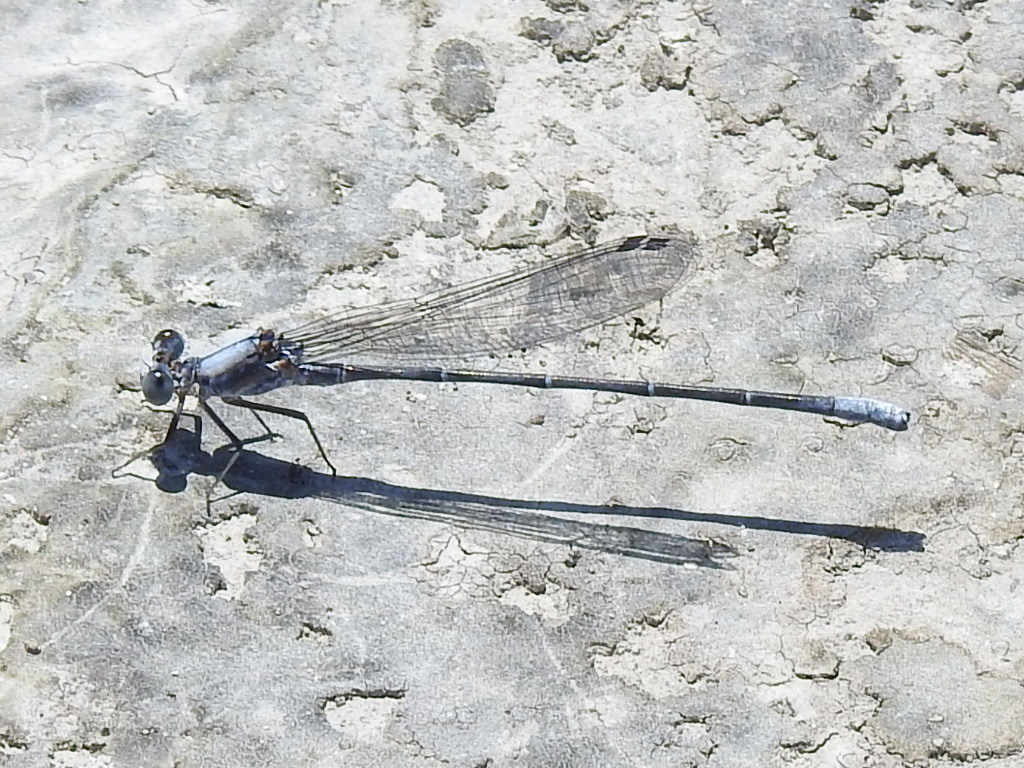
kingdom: Animalia
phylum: Arthropoda
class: Insecta
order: Odonata
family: Coenagrionidae
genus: Argia
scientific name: Argia moesta
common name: Powdered dancer
